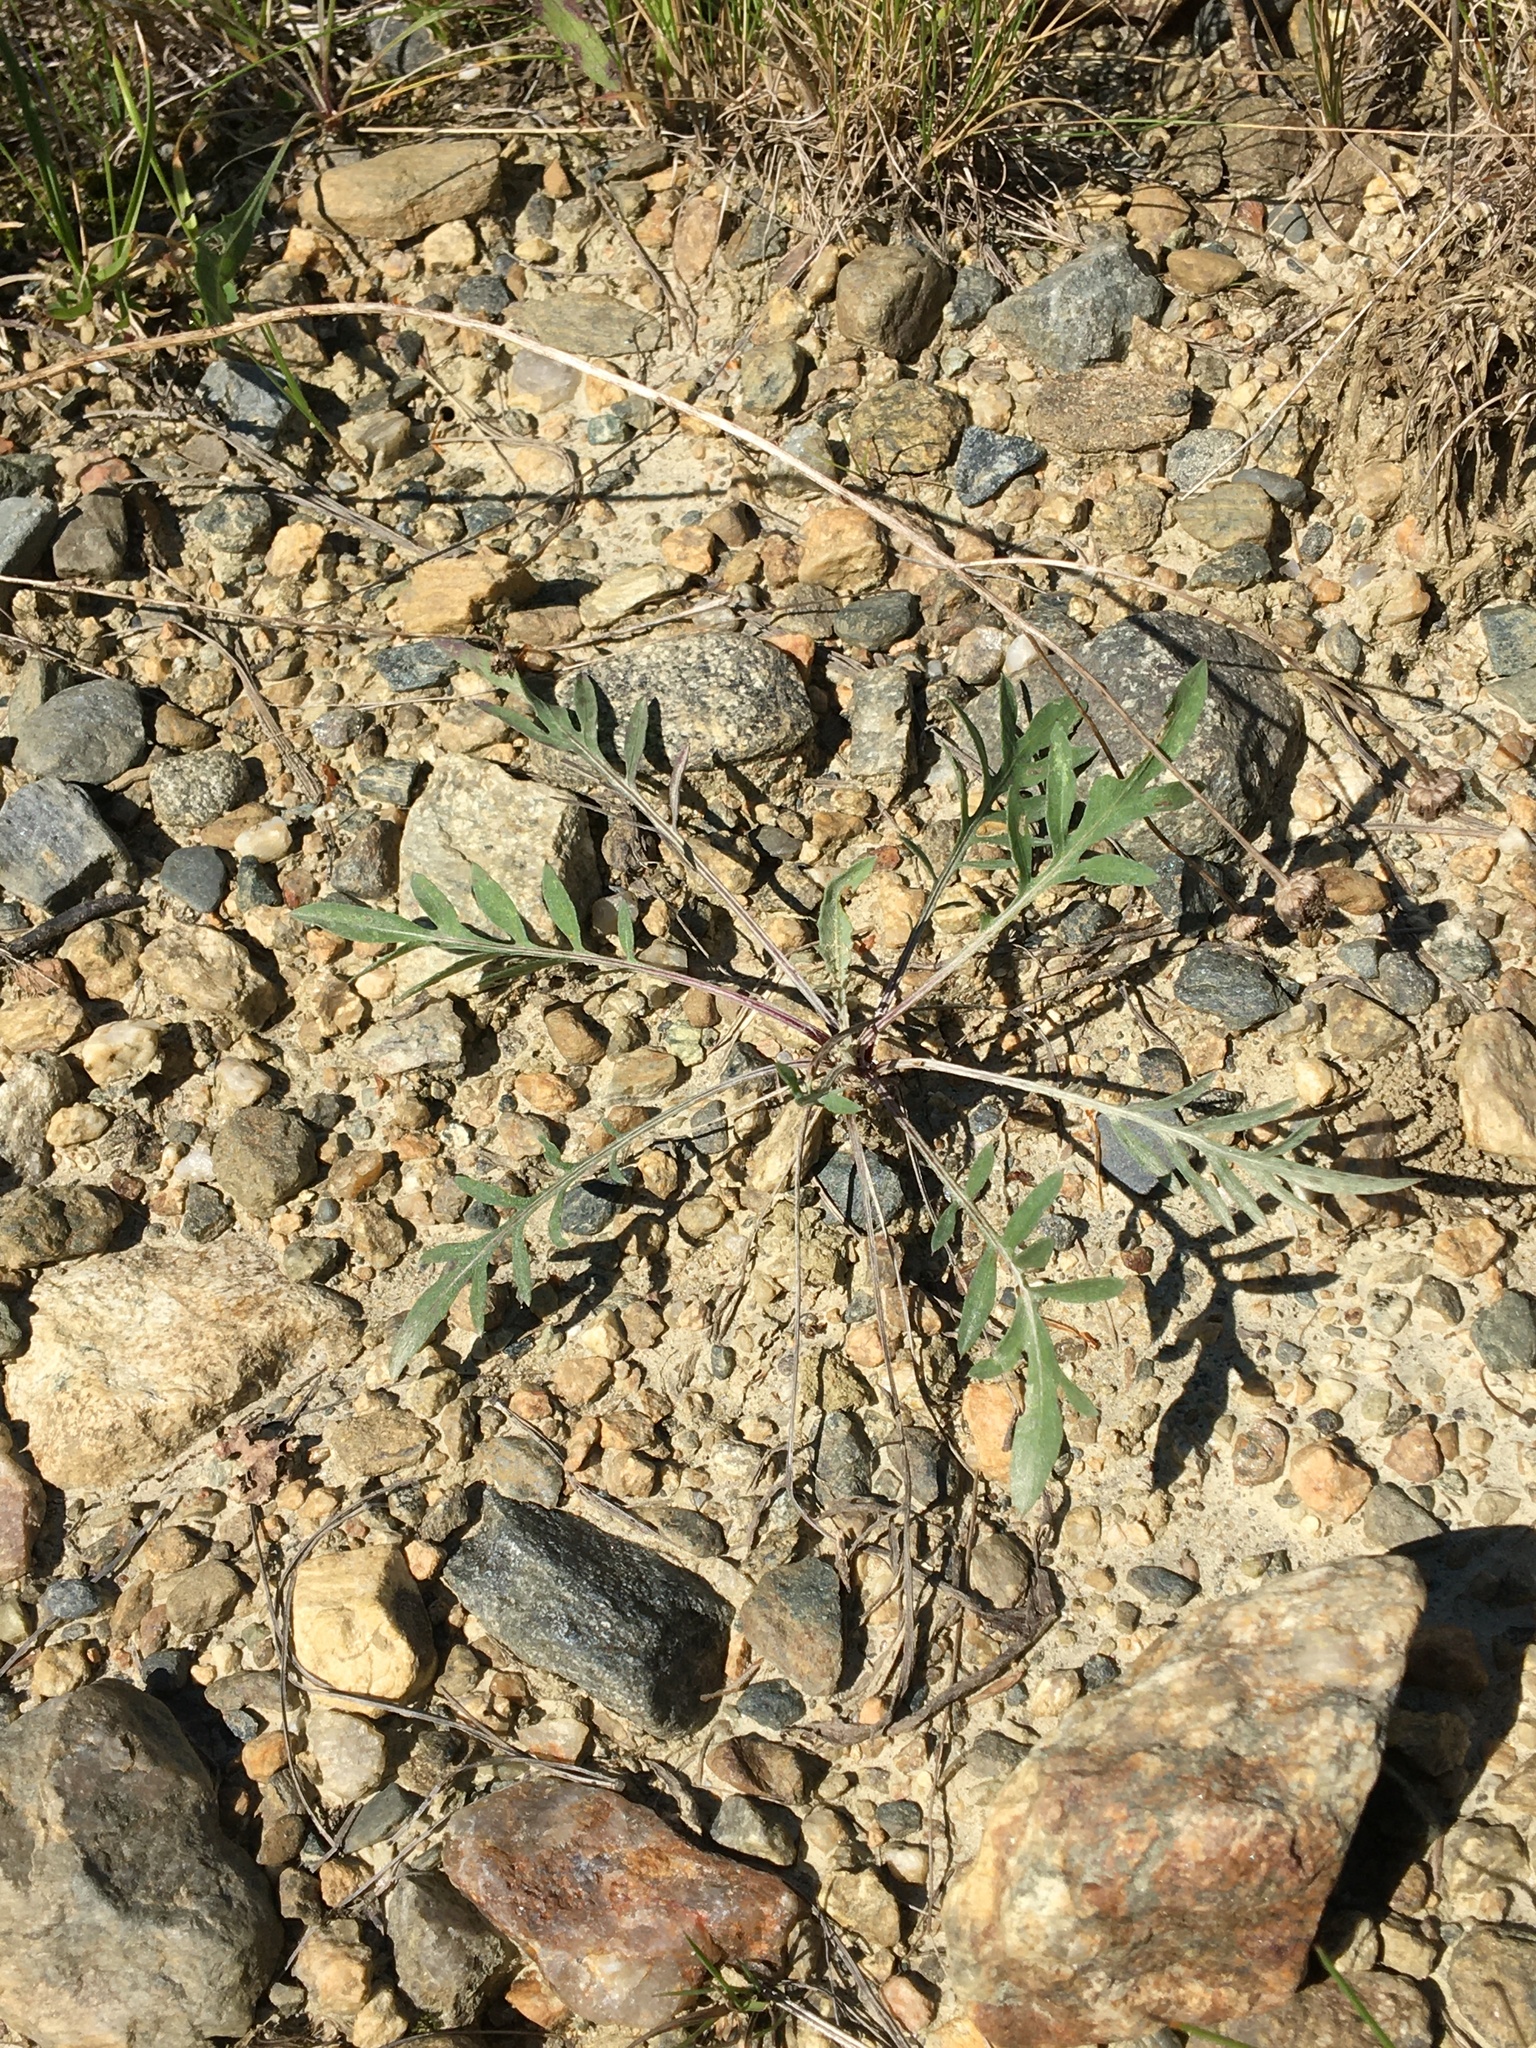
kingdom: Plantae
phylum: Tracheophyta
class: Magnoliopsida
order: Asterales
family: Asteraceae
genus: Centaurea
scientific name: Centaurea stoebe
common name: Spotted knapweed
